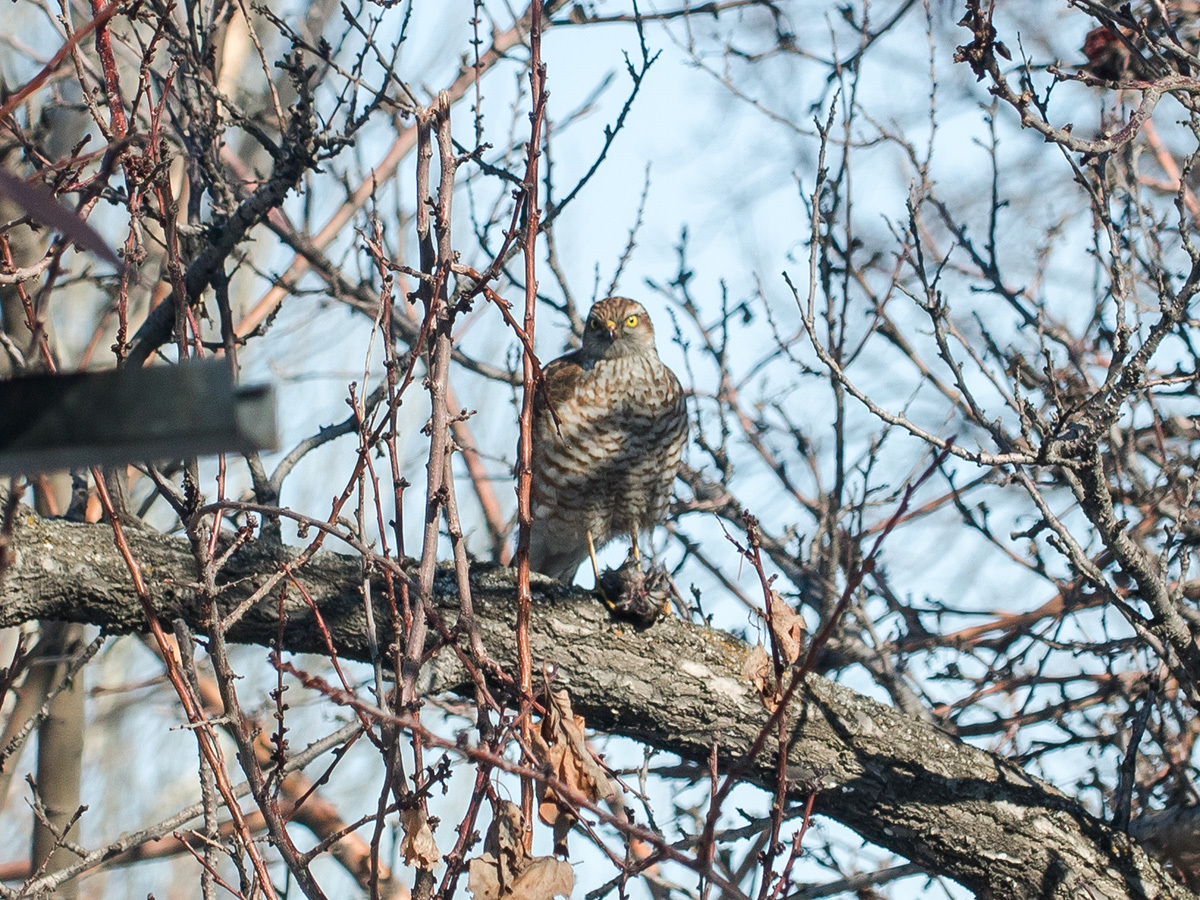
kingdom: Animalia
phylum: Chordata
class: Aves
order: Accipitriformes
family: Accipitridae
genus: Accipiter
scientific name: Accipiter nisus
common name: Eurasian sparrowhawk
